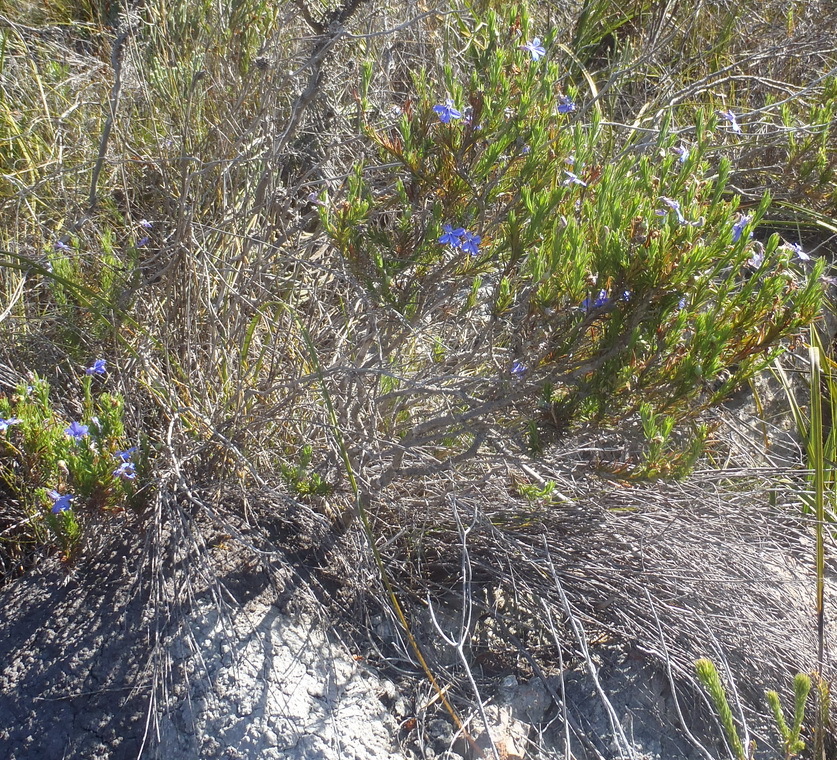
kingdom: Plantae
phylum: Tracheophyta
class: Magnoliopsida
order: Asterales
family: Campanulaceae
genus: Lobelia
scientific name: Lobelia pinifolia
